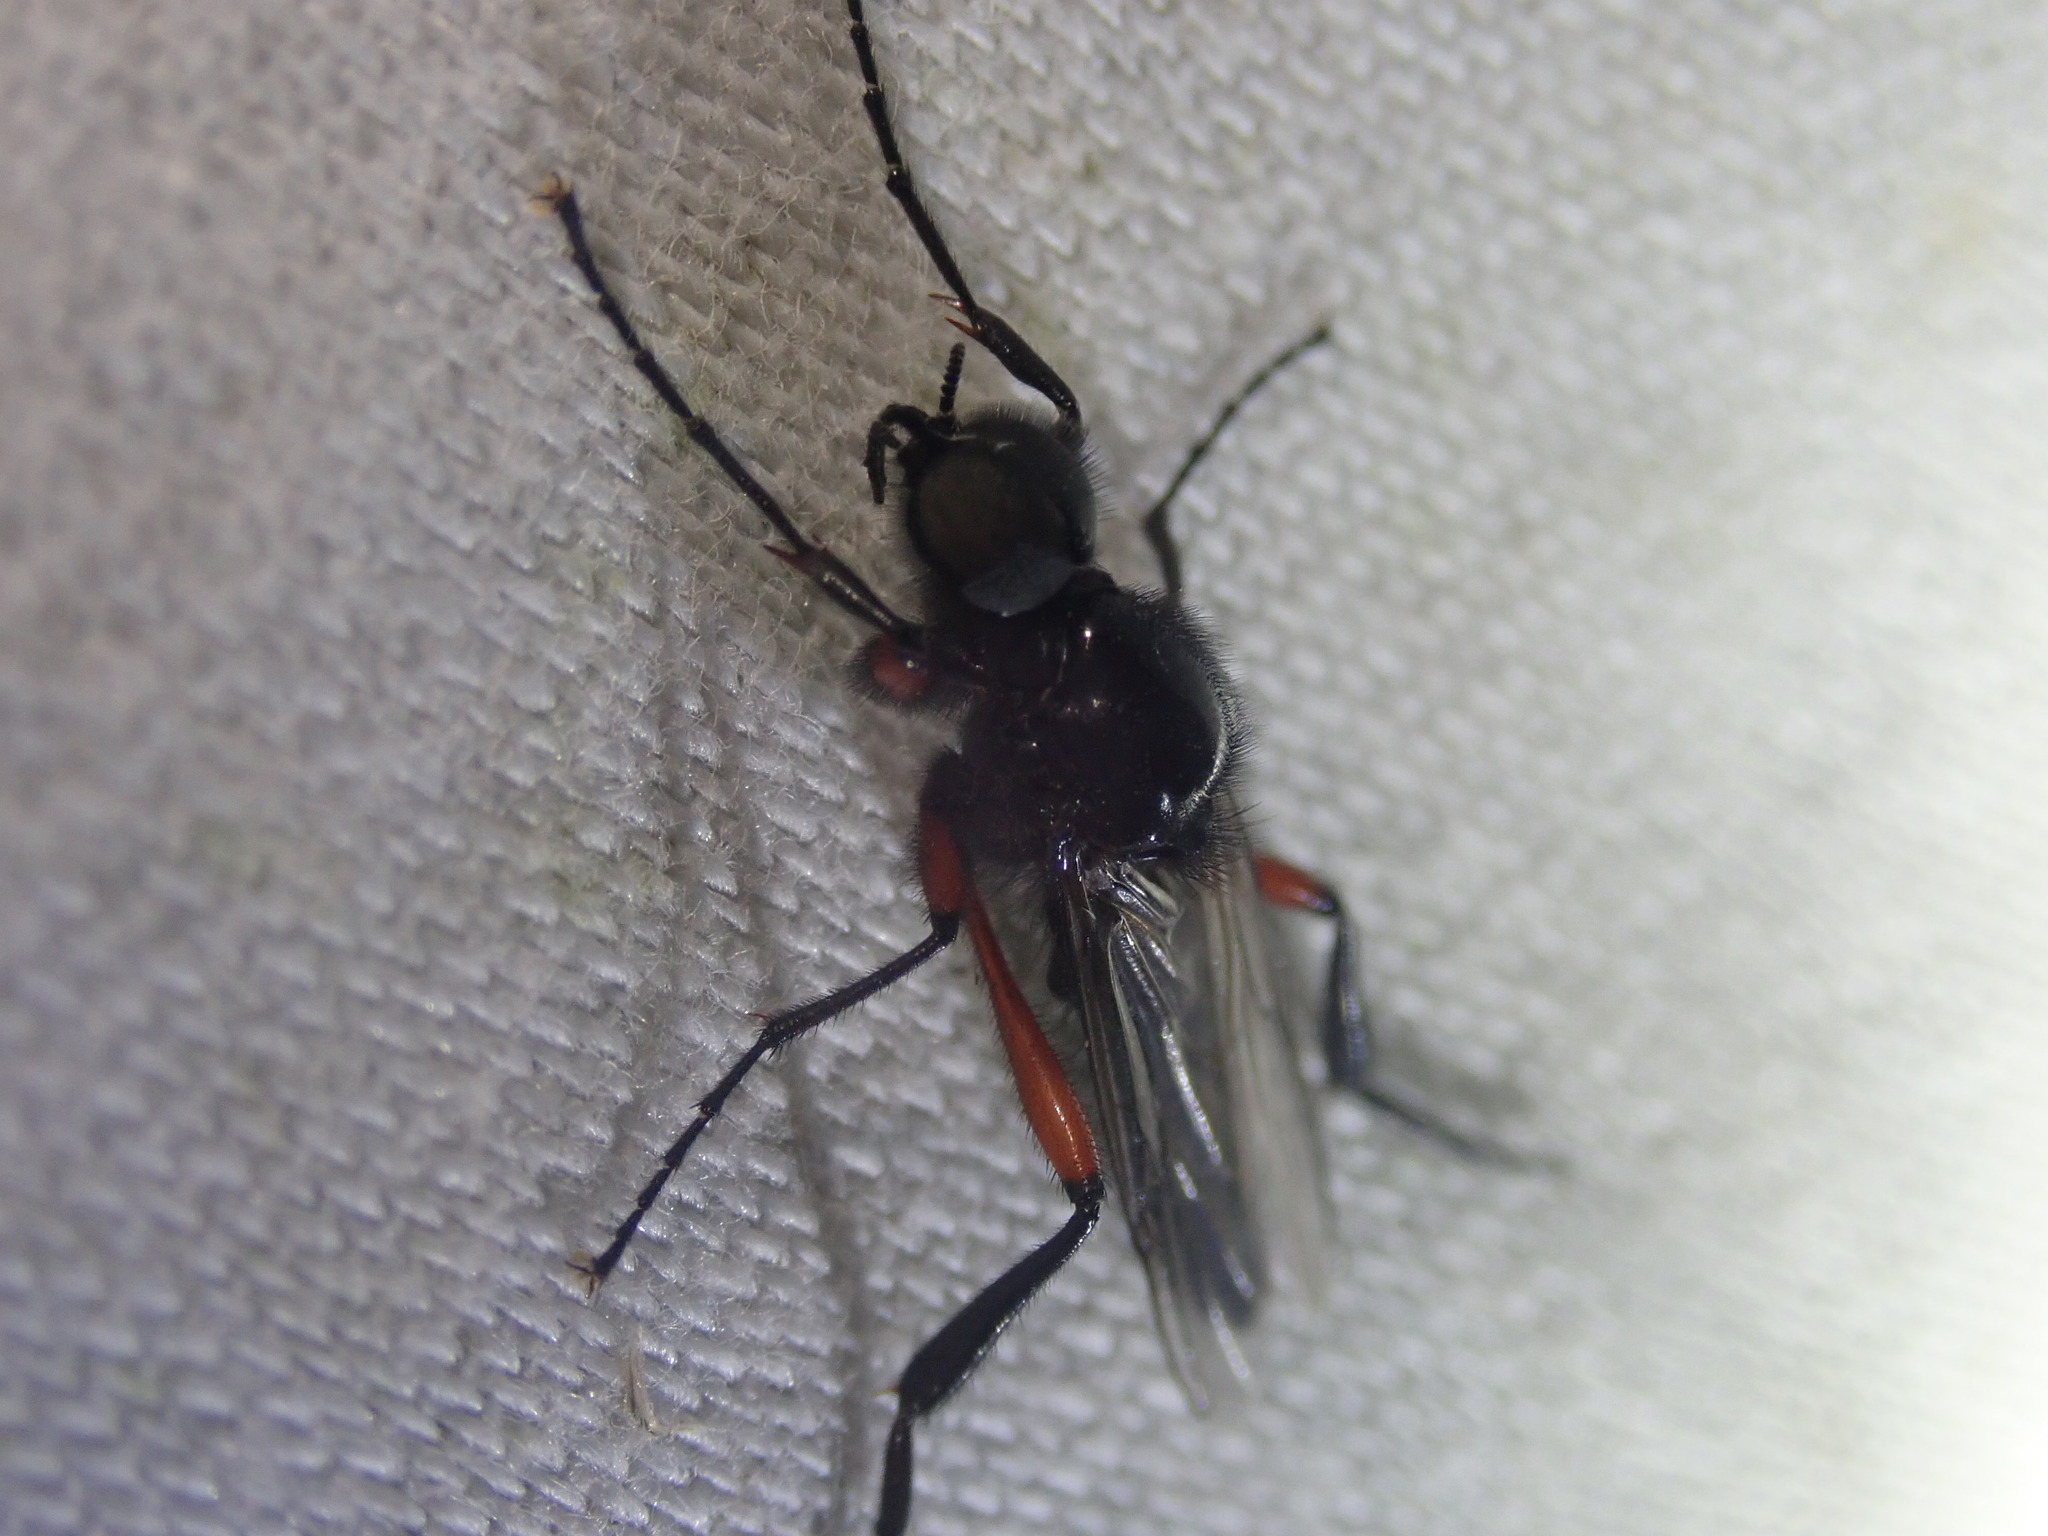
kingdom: Animalia
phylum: Arthropoda
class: Insecta
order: Diptera
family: Bibionidae
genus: Bibio
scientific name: Bibio pomonae
